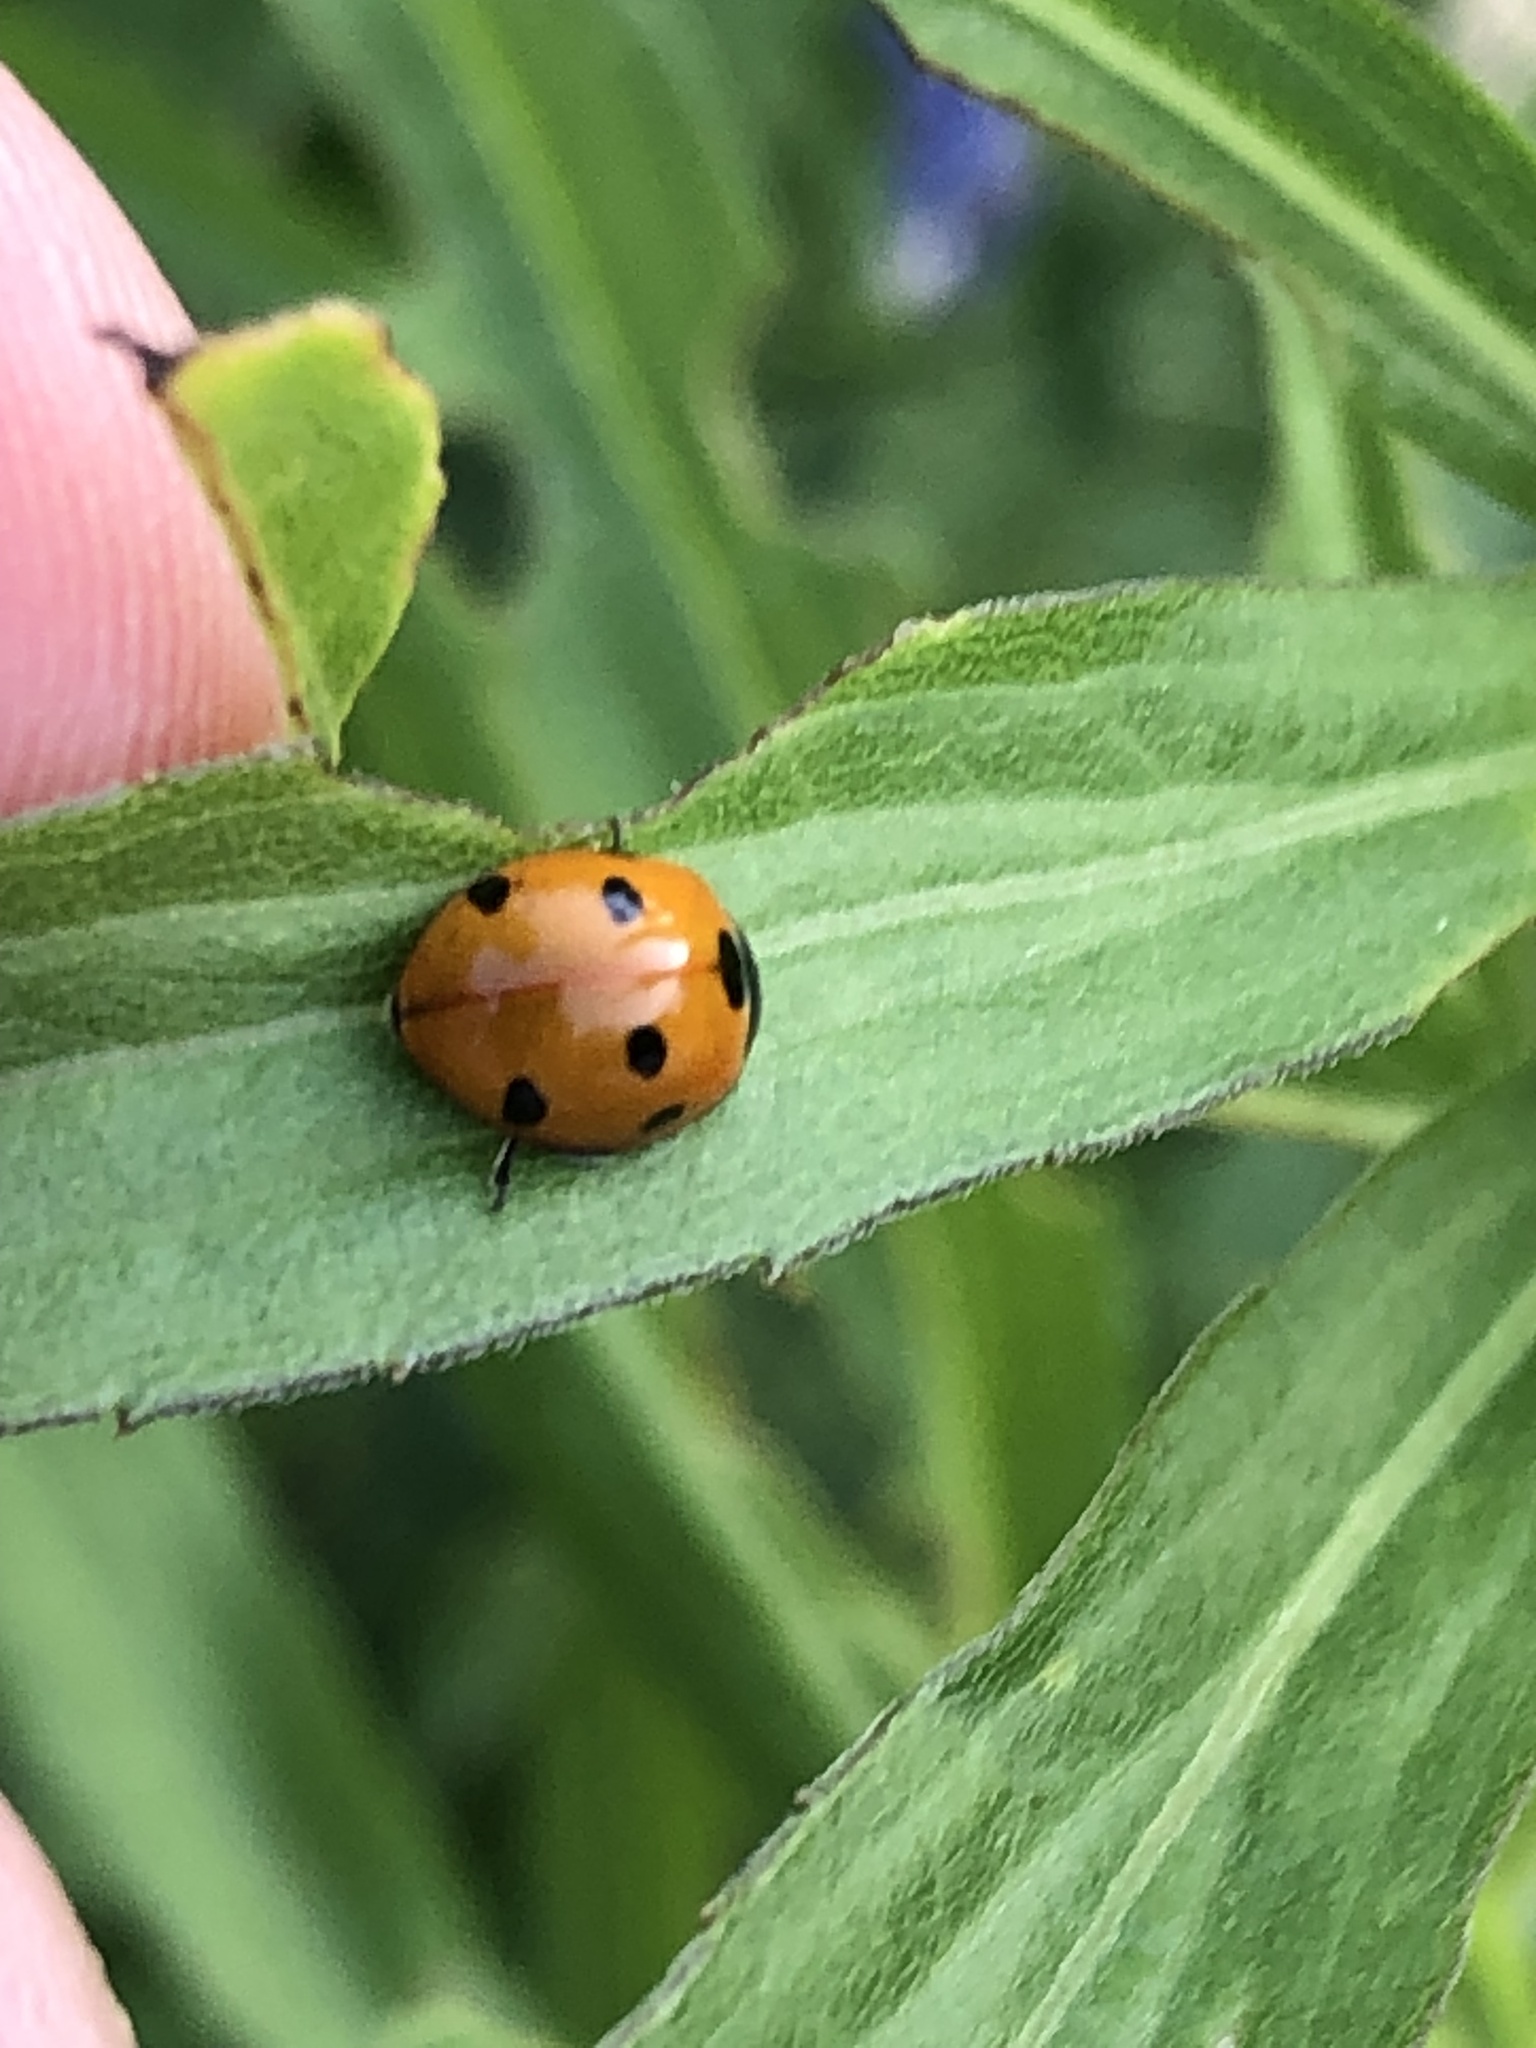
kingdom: Animalia
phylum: Arthropoda
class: Insecta
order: Coleoptera
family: Coccinellidae
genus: Coccinella
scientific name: Coccinella septempunctata
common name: Sevenspotted lady beetle
